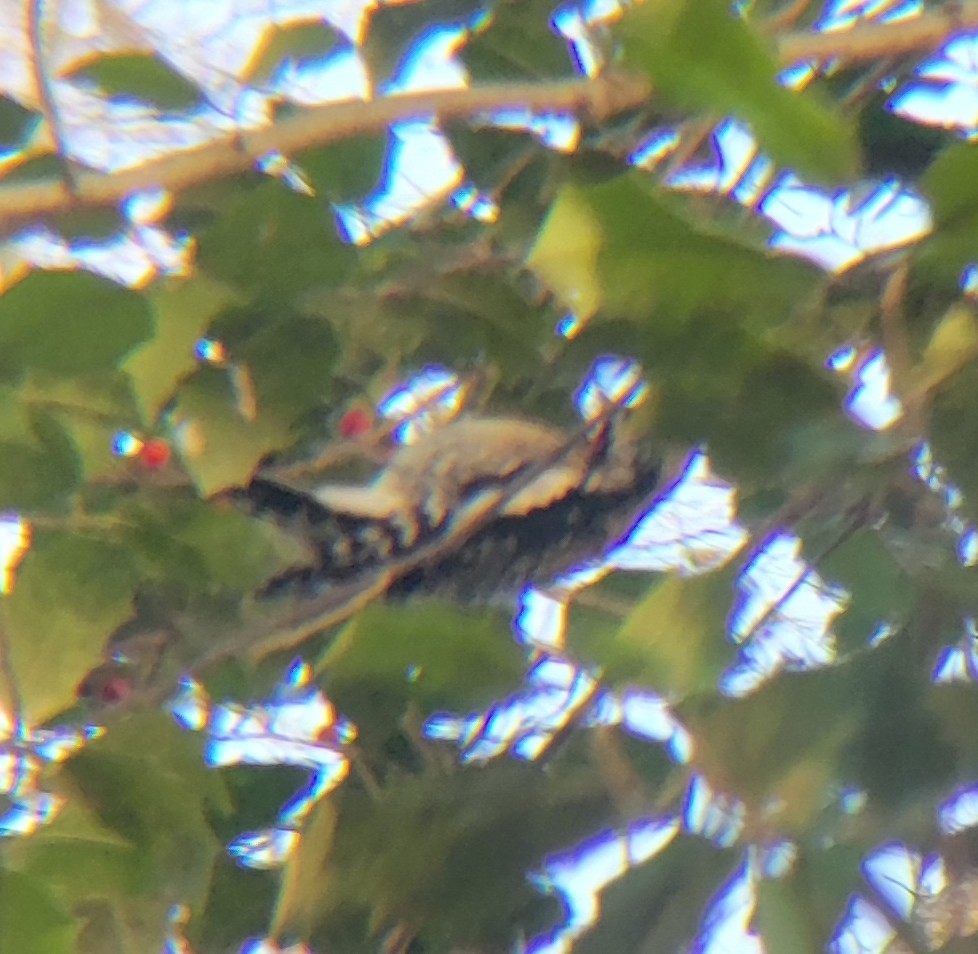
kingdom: Animalia
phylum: Chordata
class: Aves
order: Piciformes
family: Picidae
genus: Sphyrapicus
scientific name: Sphyrapicus varius
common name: Yellow-bellied sapsucker
